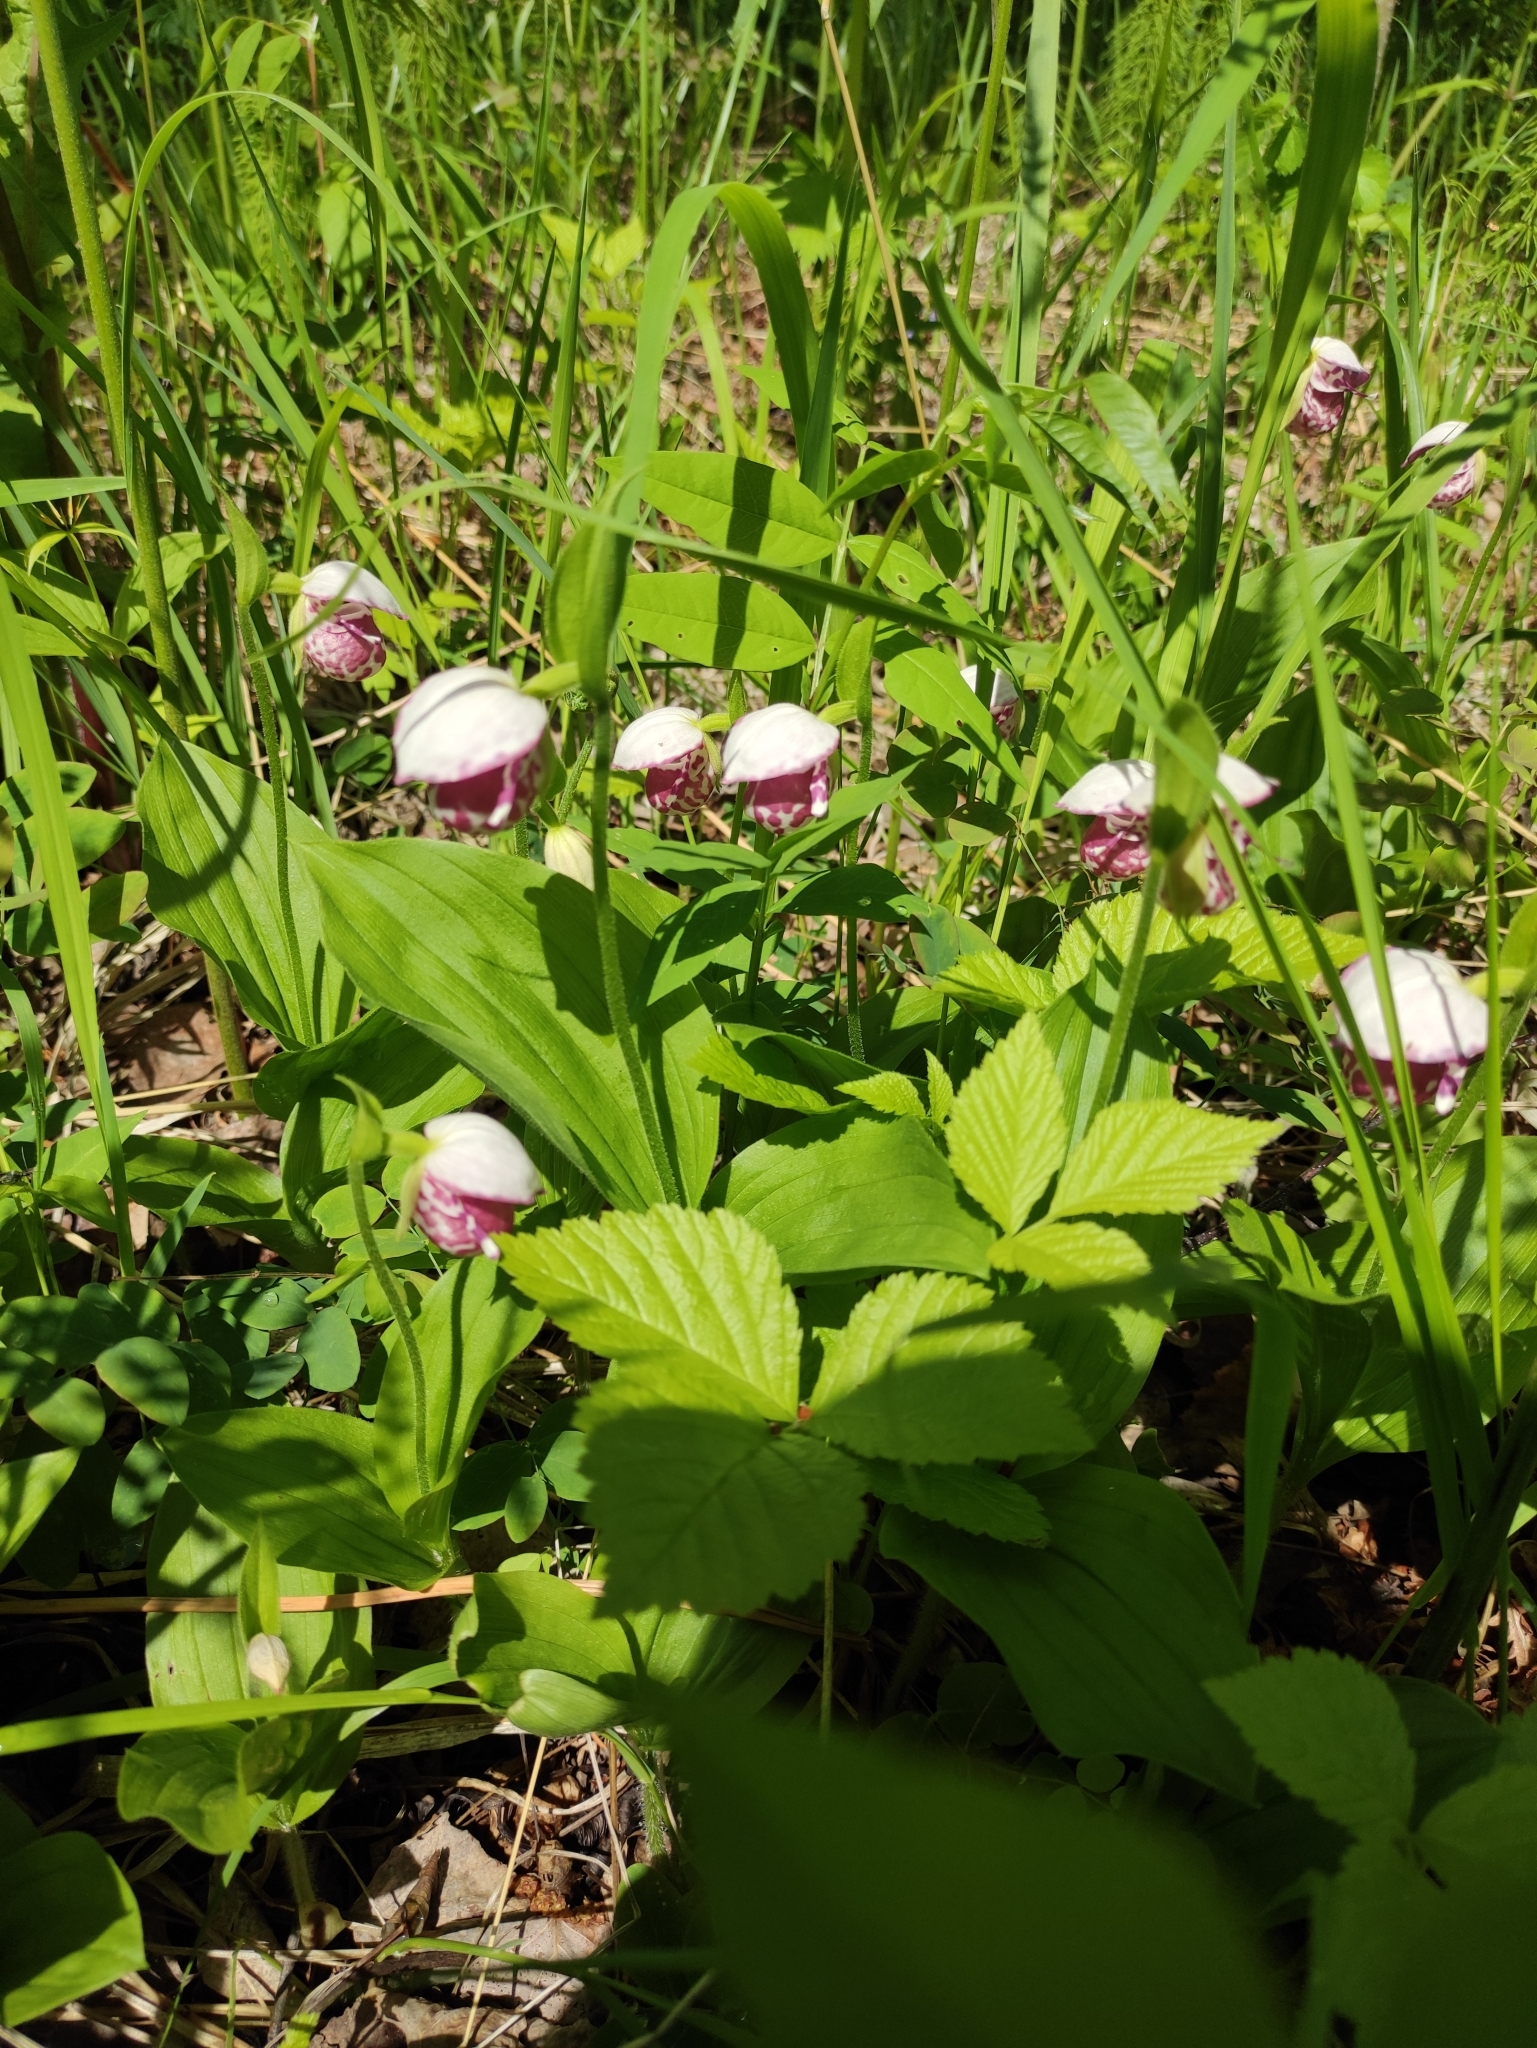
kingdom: Plantae
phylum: Tracheophyta
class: Liliopsida
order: Asparagales
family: Orchidaceae
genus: Cypripedium
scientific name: Cypripedium guttatum
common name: Pink lady slipper
